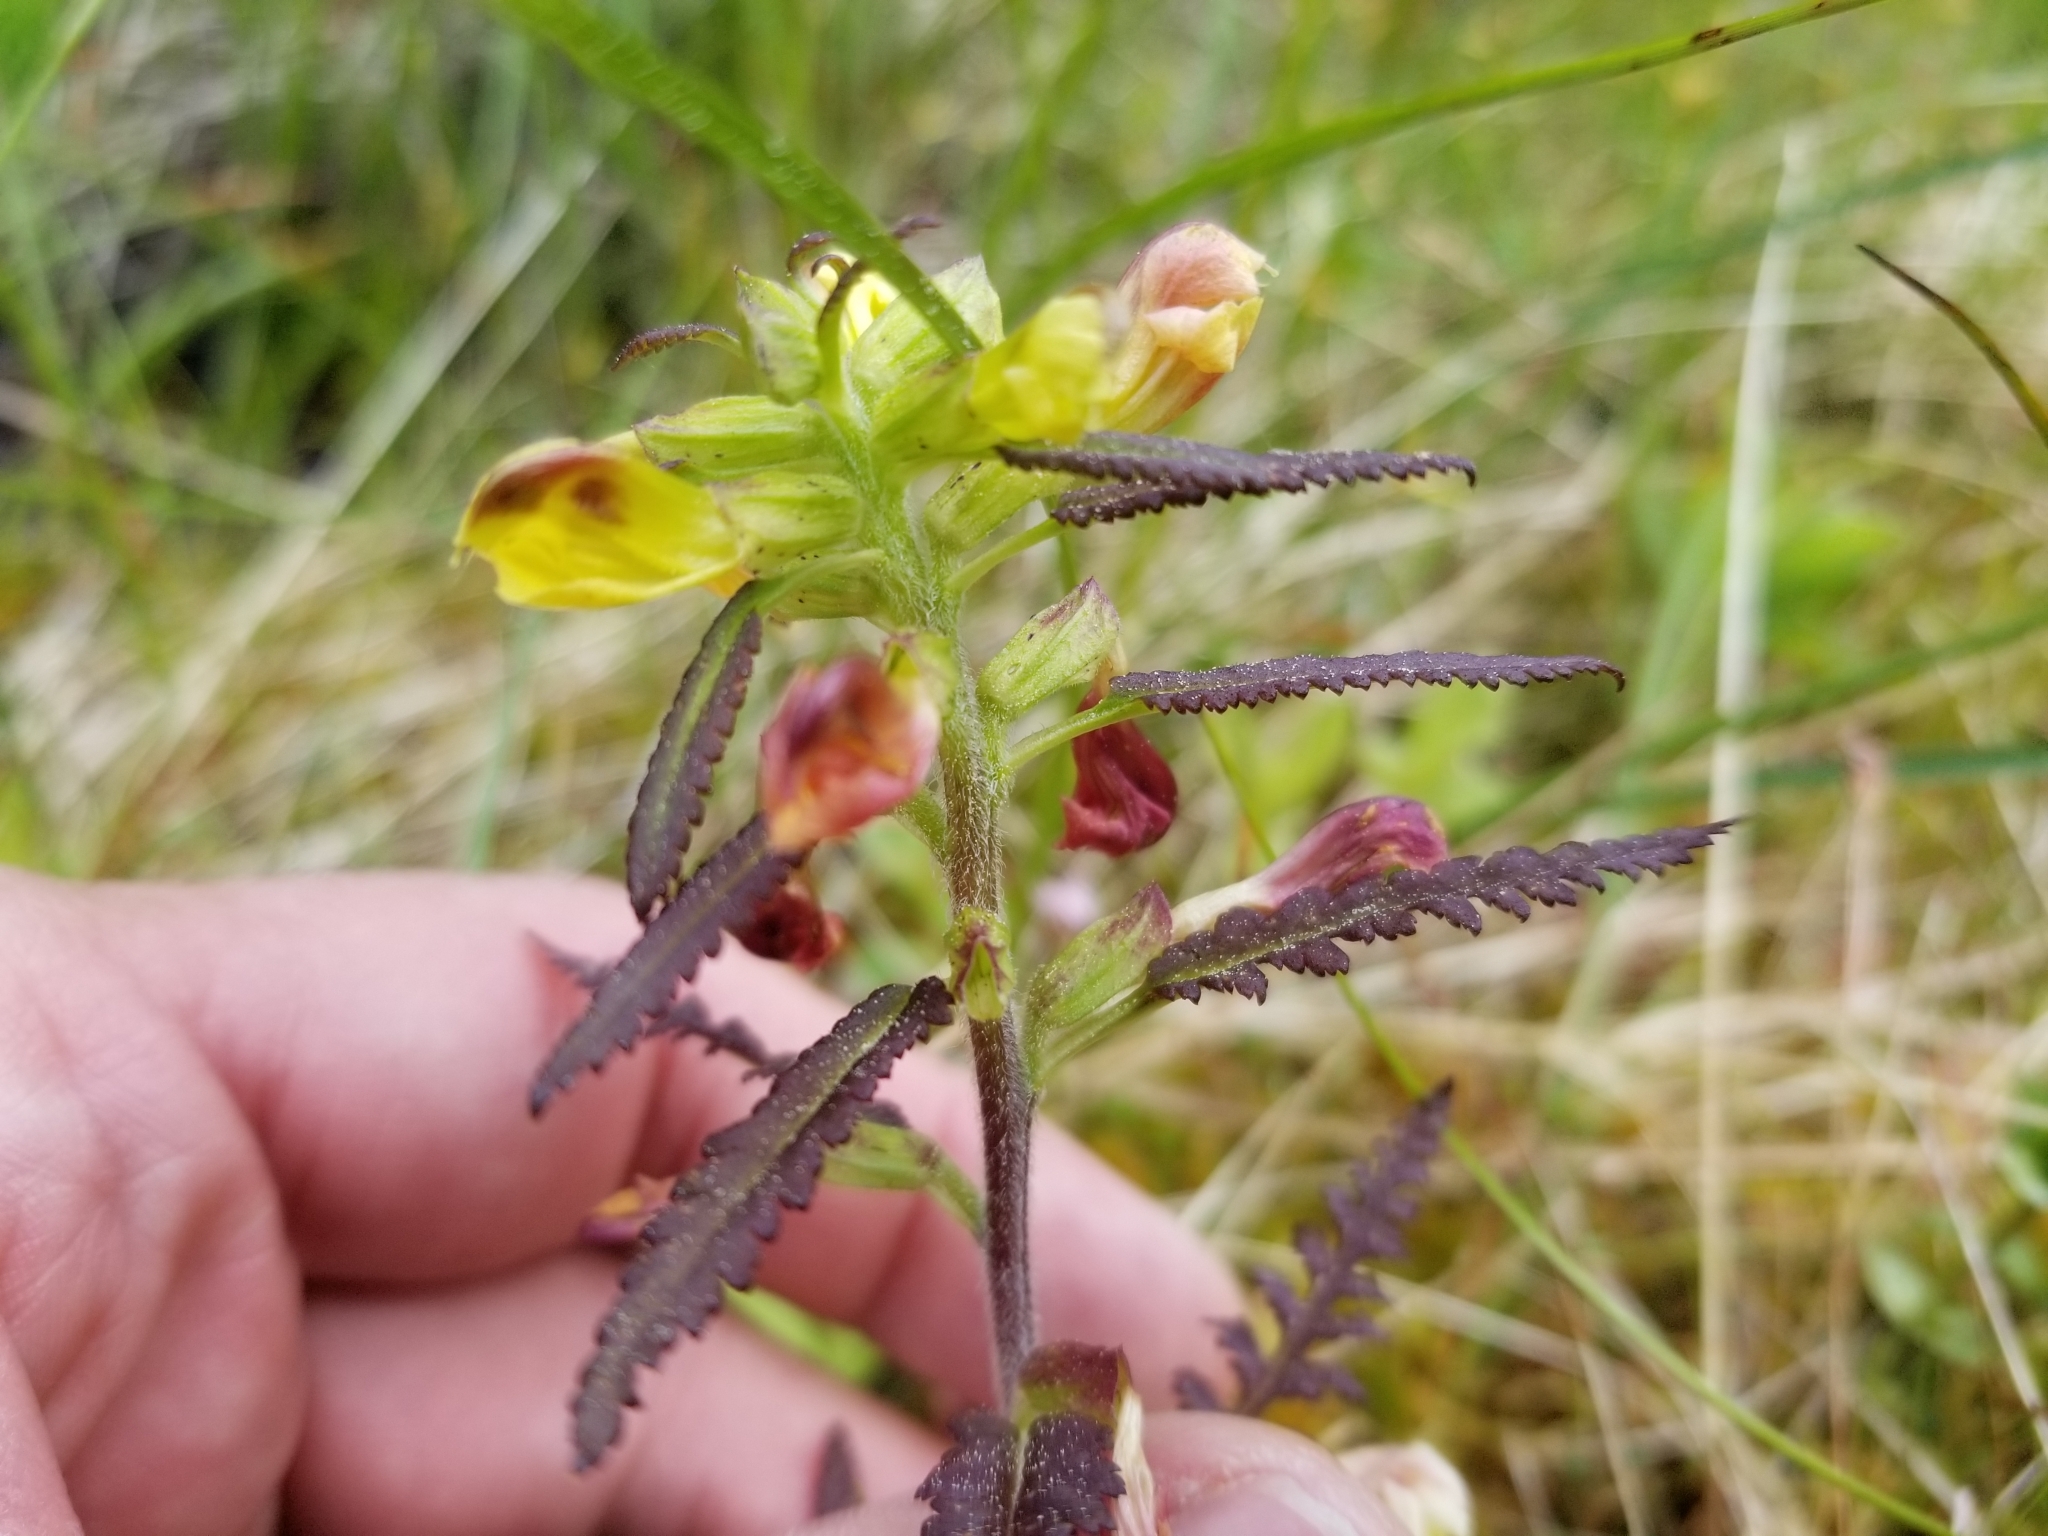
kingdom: Plantae
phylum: Tracheophyta
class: Magnoliopsida
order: Lamiales
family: Orobanchaceae
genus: Pedicularis
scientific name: Pedicularis labradorica
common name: Labrador lousewort
